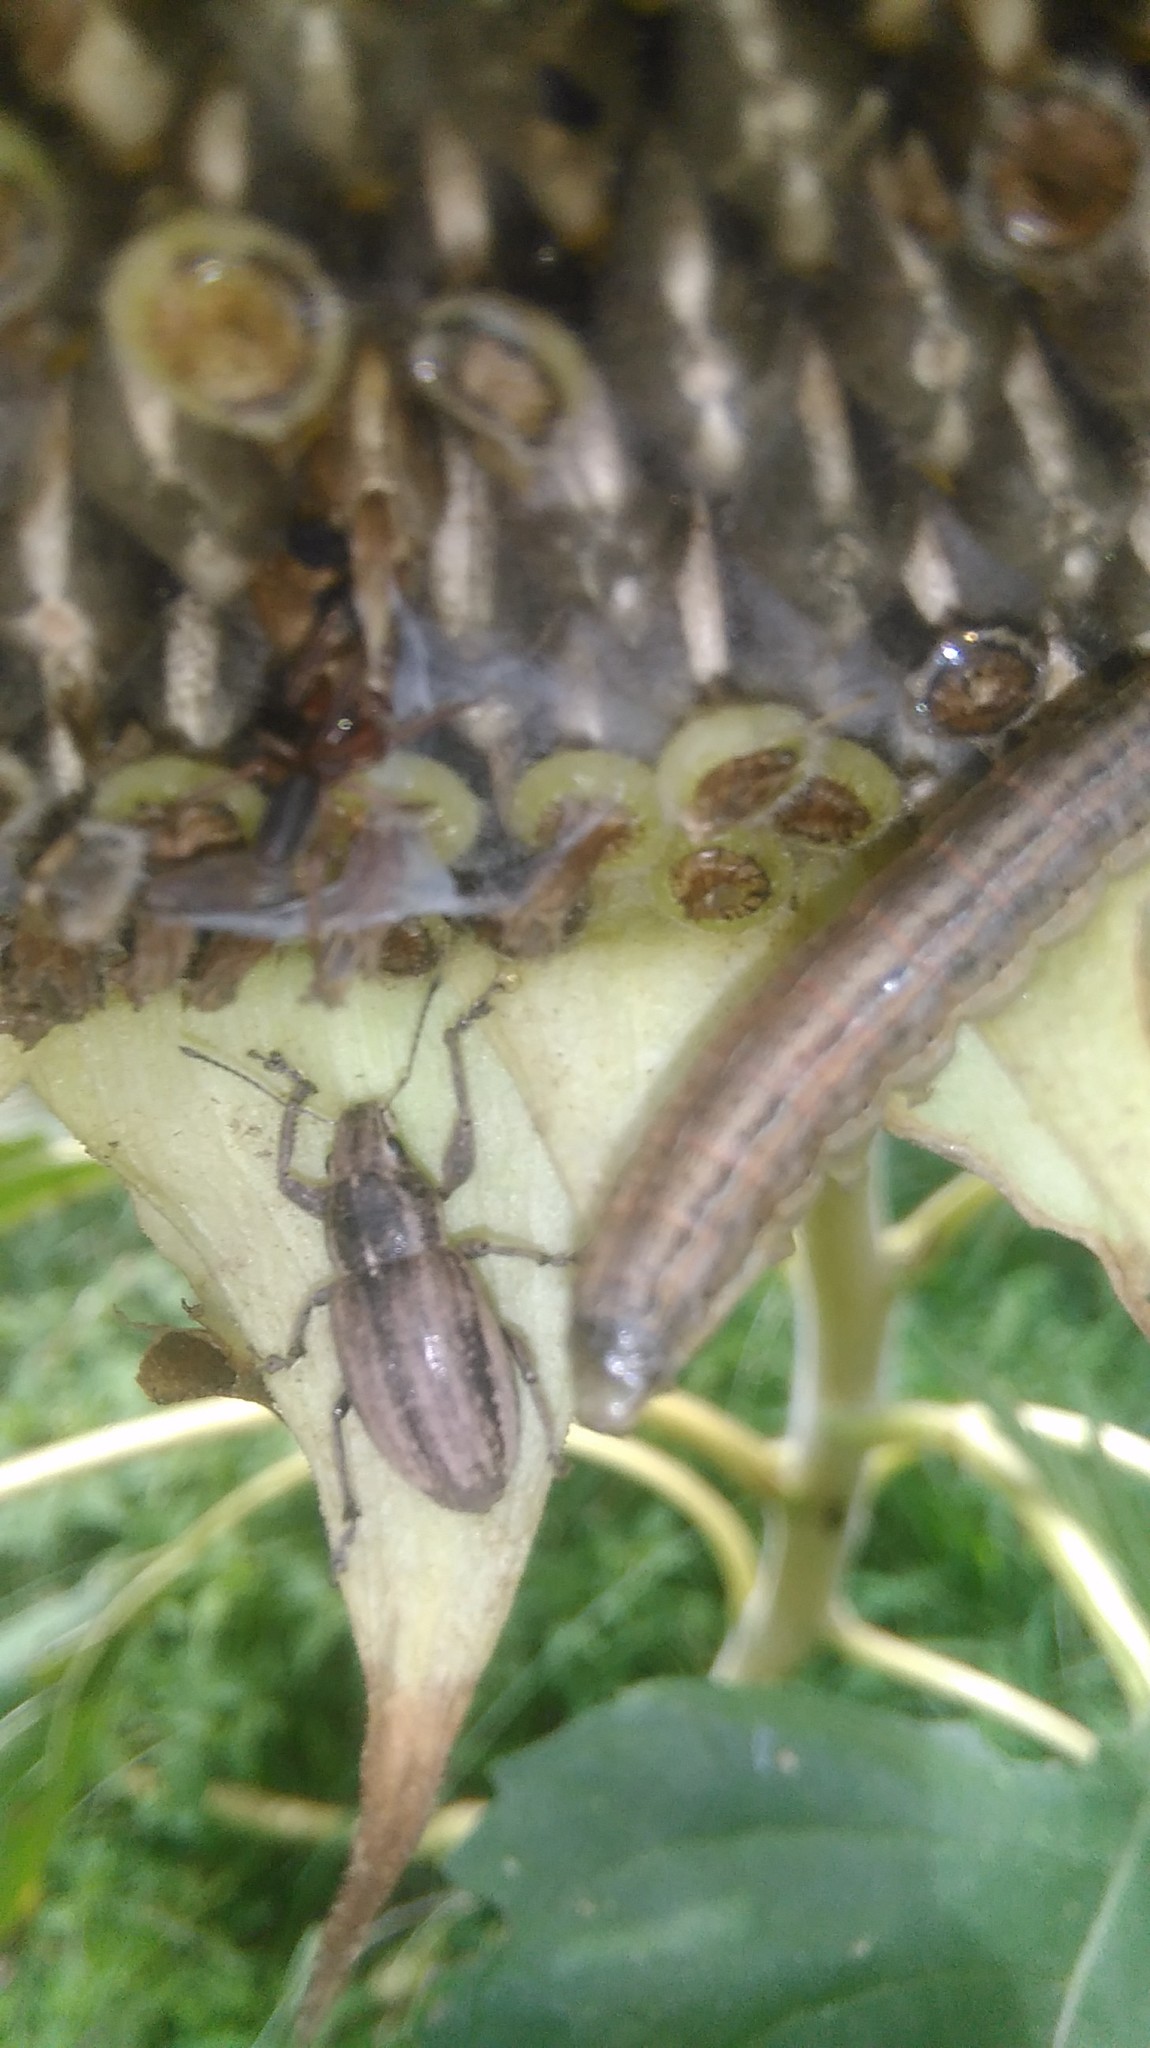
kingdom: Animalia
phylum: Arthropoda
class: Insecta
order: Coleoptera
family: Curculionidae
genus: Naupactus
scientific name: Naupactus leucoloma
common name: Whitefringed beetle
